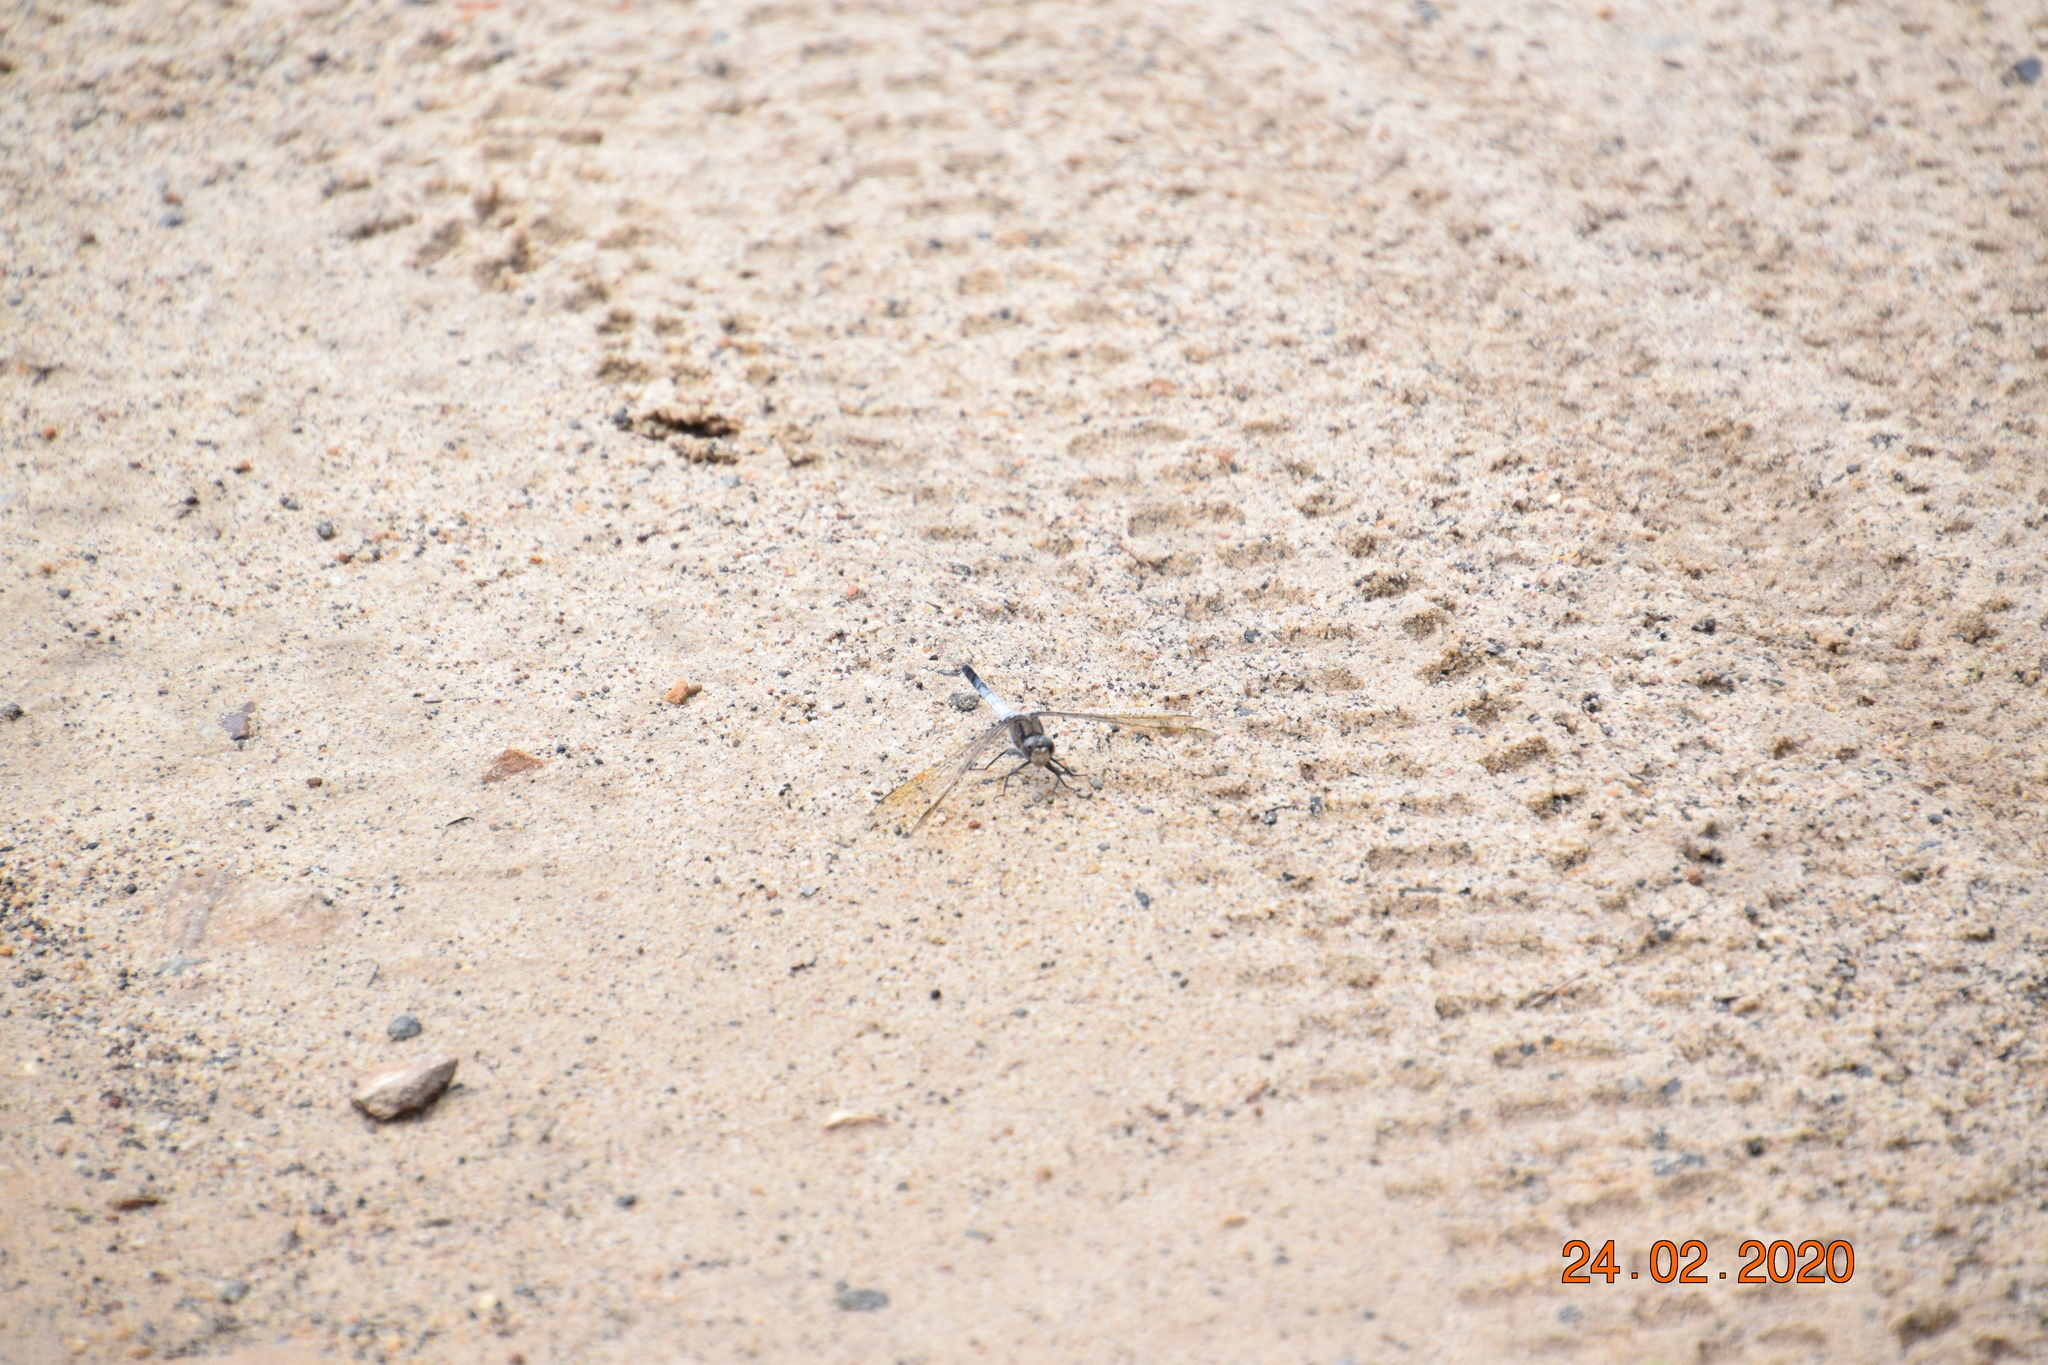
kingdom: Animalia
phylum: Arthropoda
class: Insecta
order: Odonata
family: Libellulidae
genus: Orthetrum
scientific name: Orthetrum caledonicum
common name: Blue skimmer
